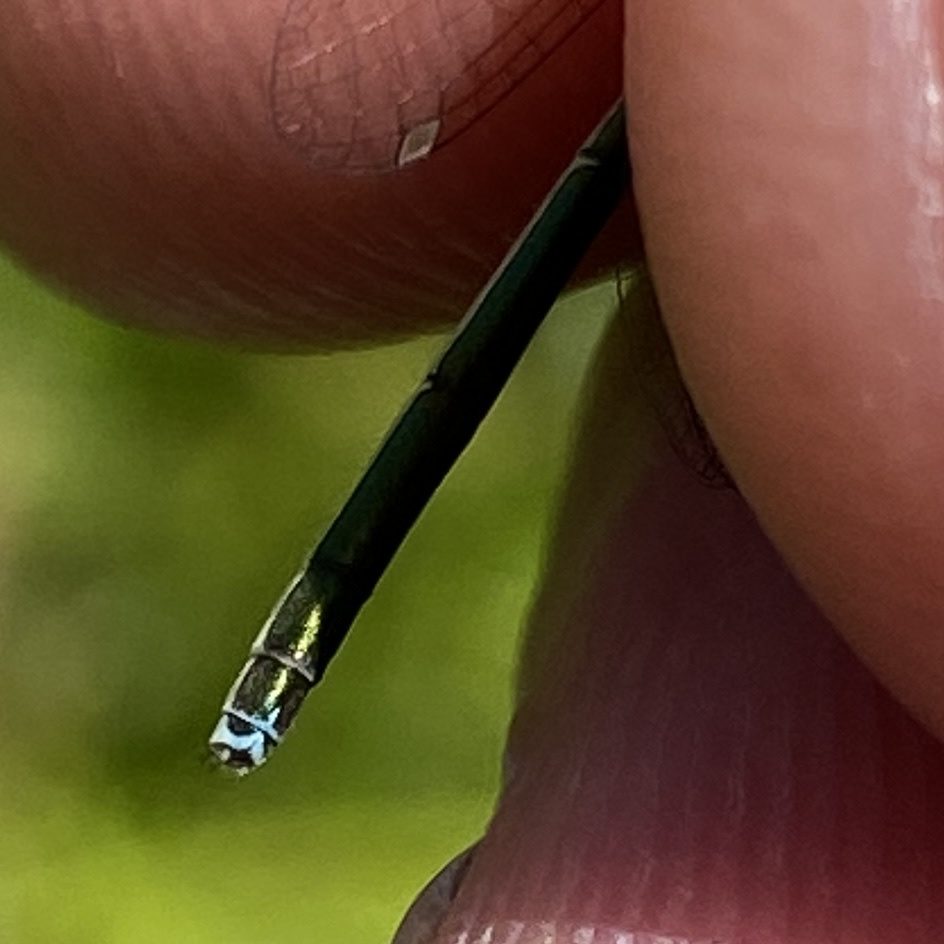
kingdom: Animalia
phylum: Arthropoda
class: Insecta
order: Odonata
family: Coenagrionidae
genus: Nehalennia
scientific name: Nehalennia irene
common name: Sedge sprite
